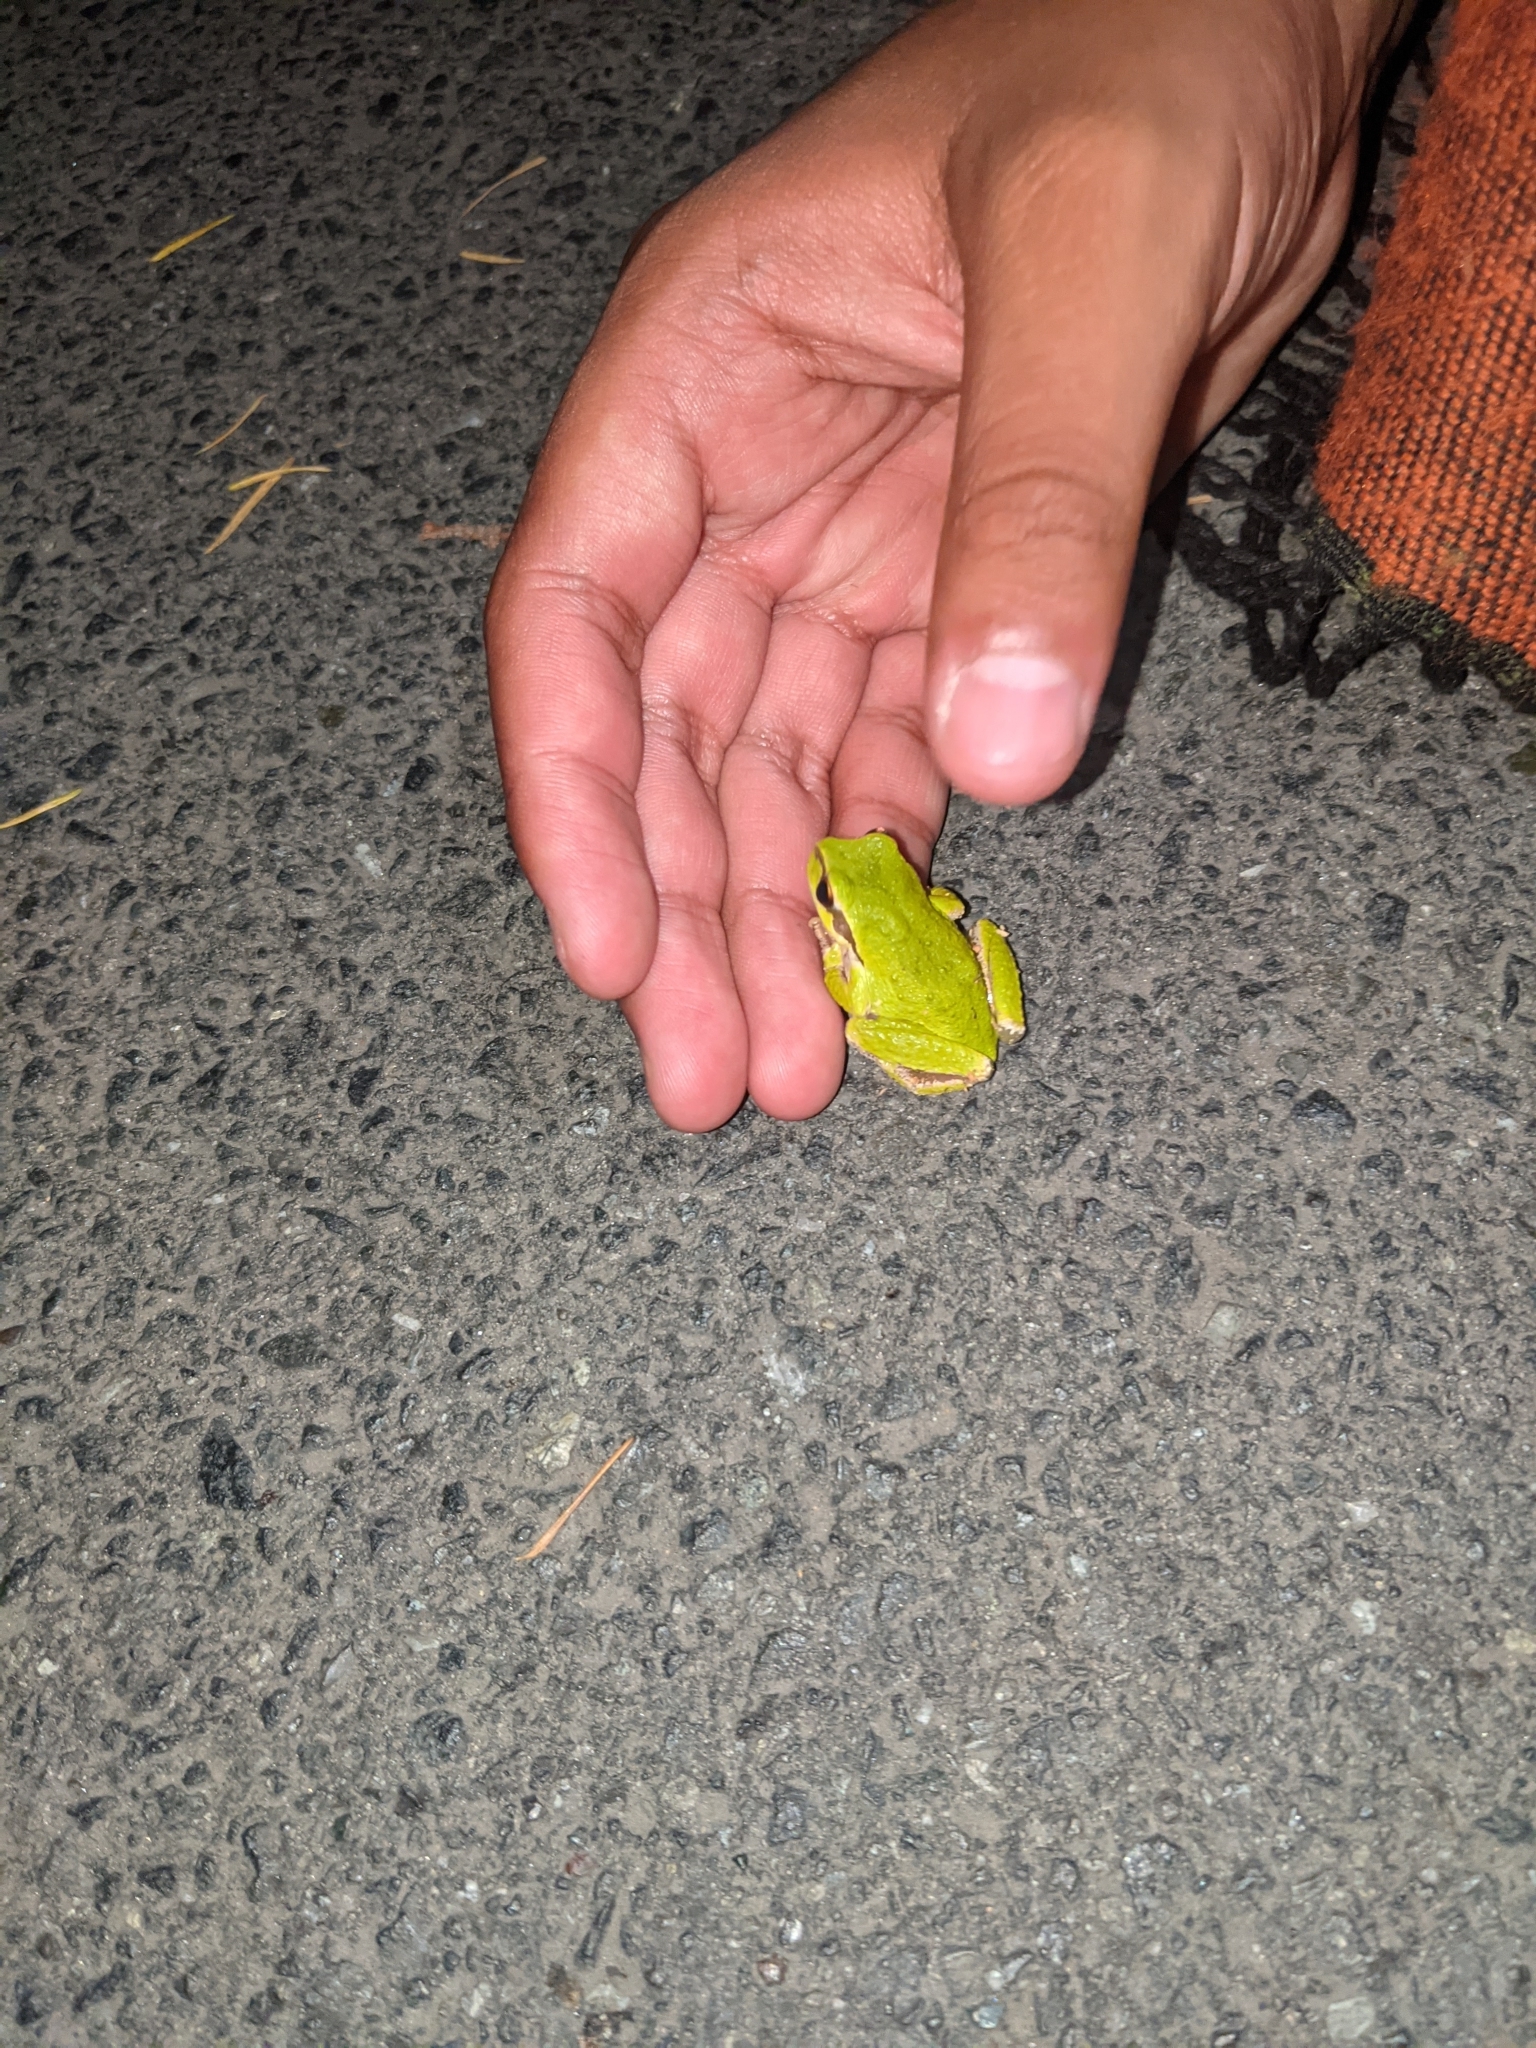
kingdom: Animalia
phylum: Chordata
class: Amphibia
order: Anura
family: Hylidae
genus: Pseudacris
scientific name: Pseudacris regilla
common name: Pacific chorus frog
